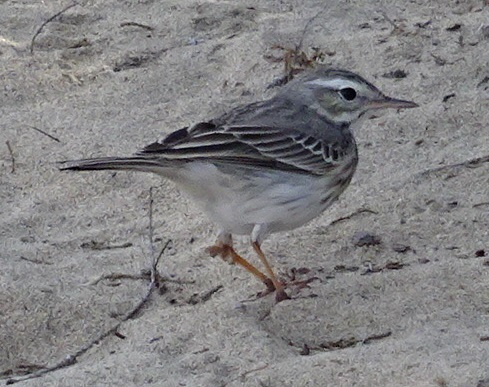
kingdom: Animalia
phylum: Chordata
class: Aves
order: Passeriformes
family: Motacillidae
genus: Anthus
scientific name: Anthus berthelotii
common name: Berthelot's pipit
